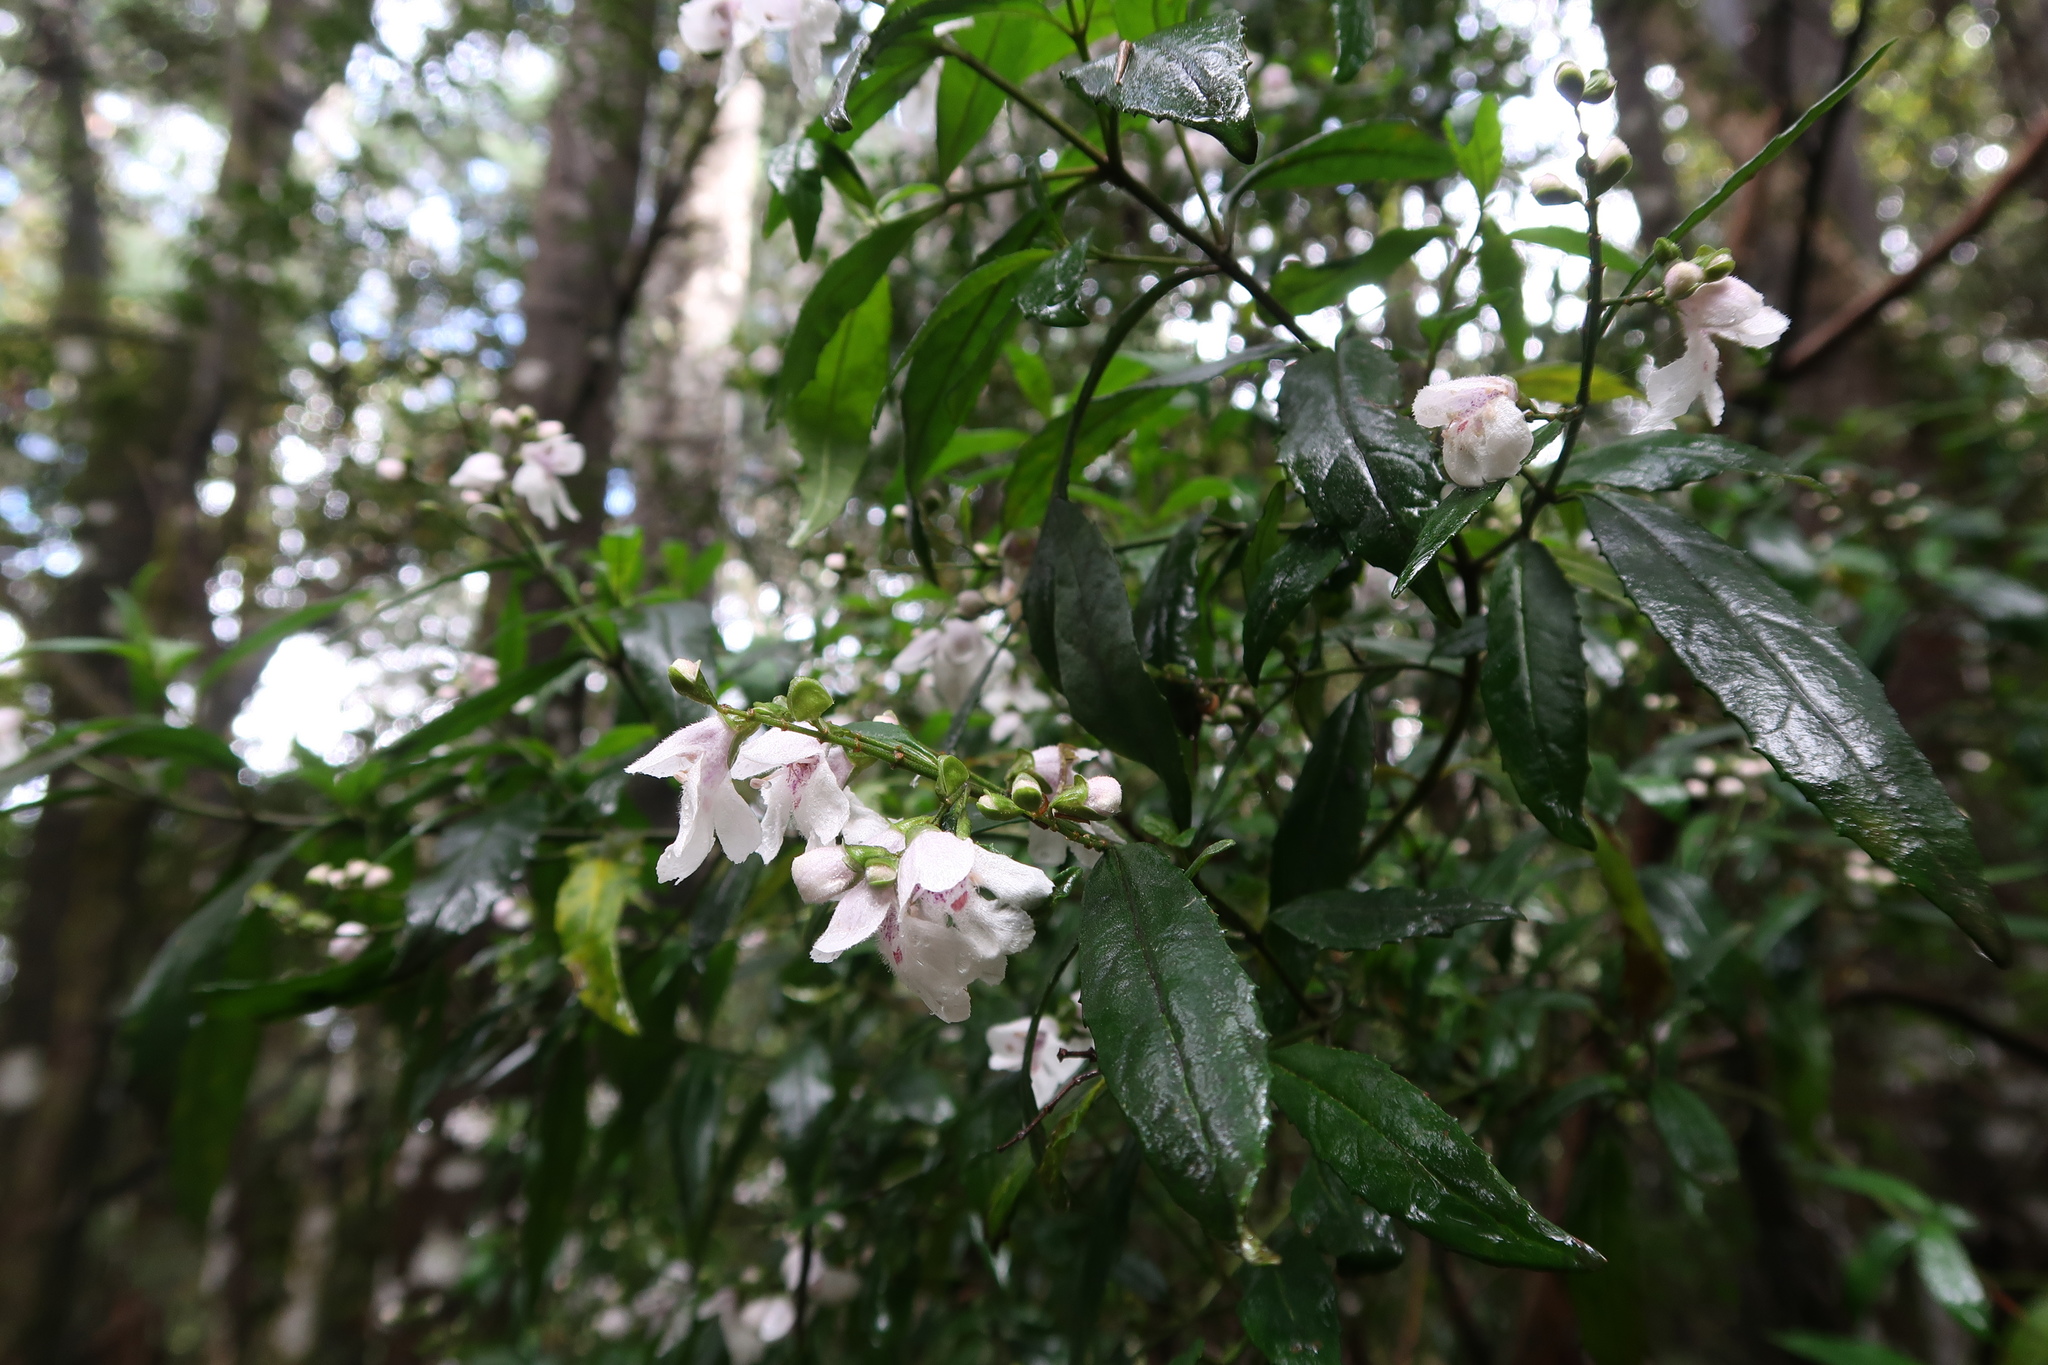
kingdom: Plantae
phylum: Tracheophyta
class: Magnoliopsida
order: Lamiales
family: Lamiaceae
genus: Prostanthera
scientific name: Prostanthera lasianthos
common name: Mountain-lilac
